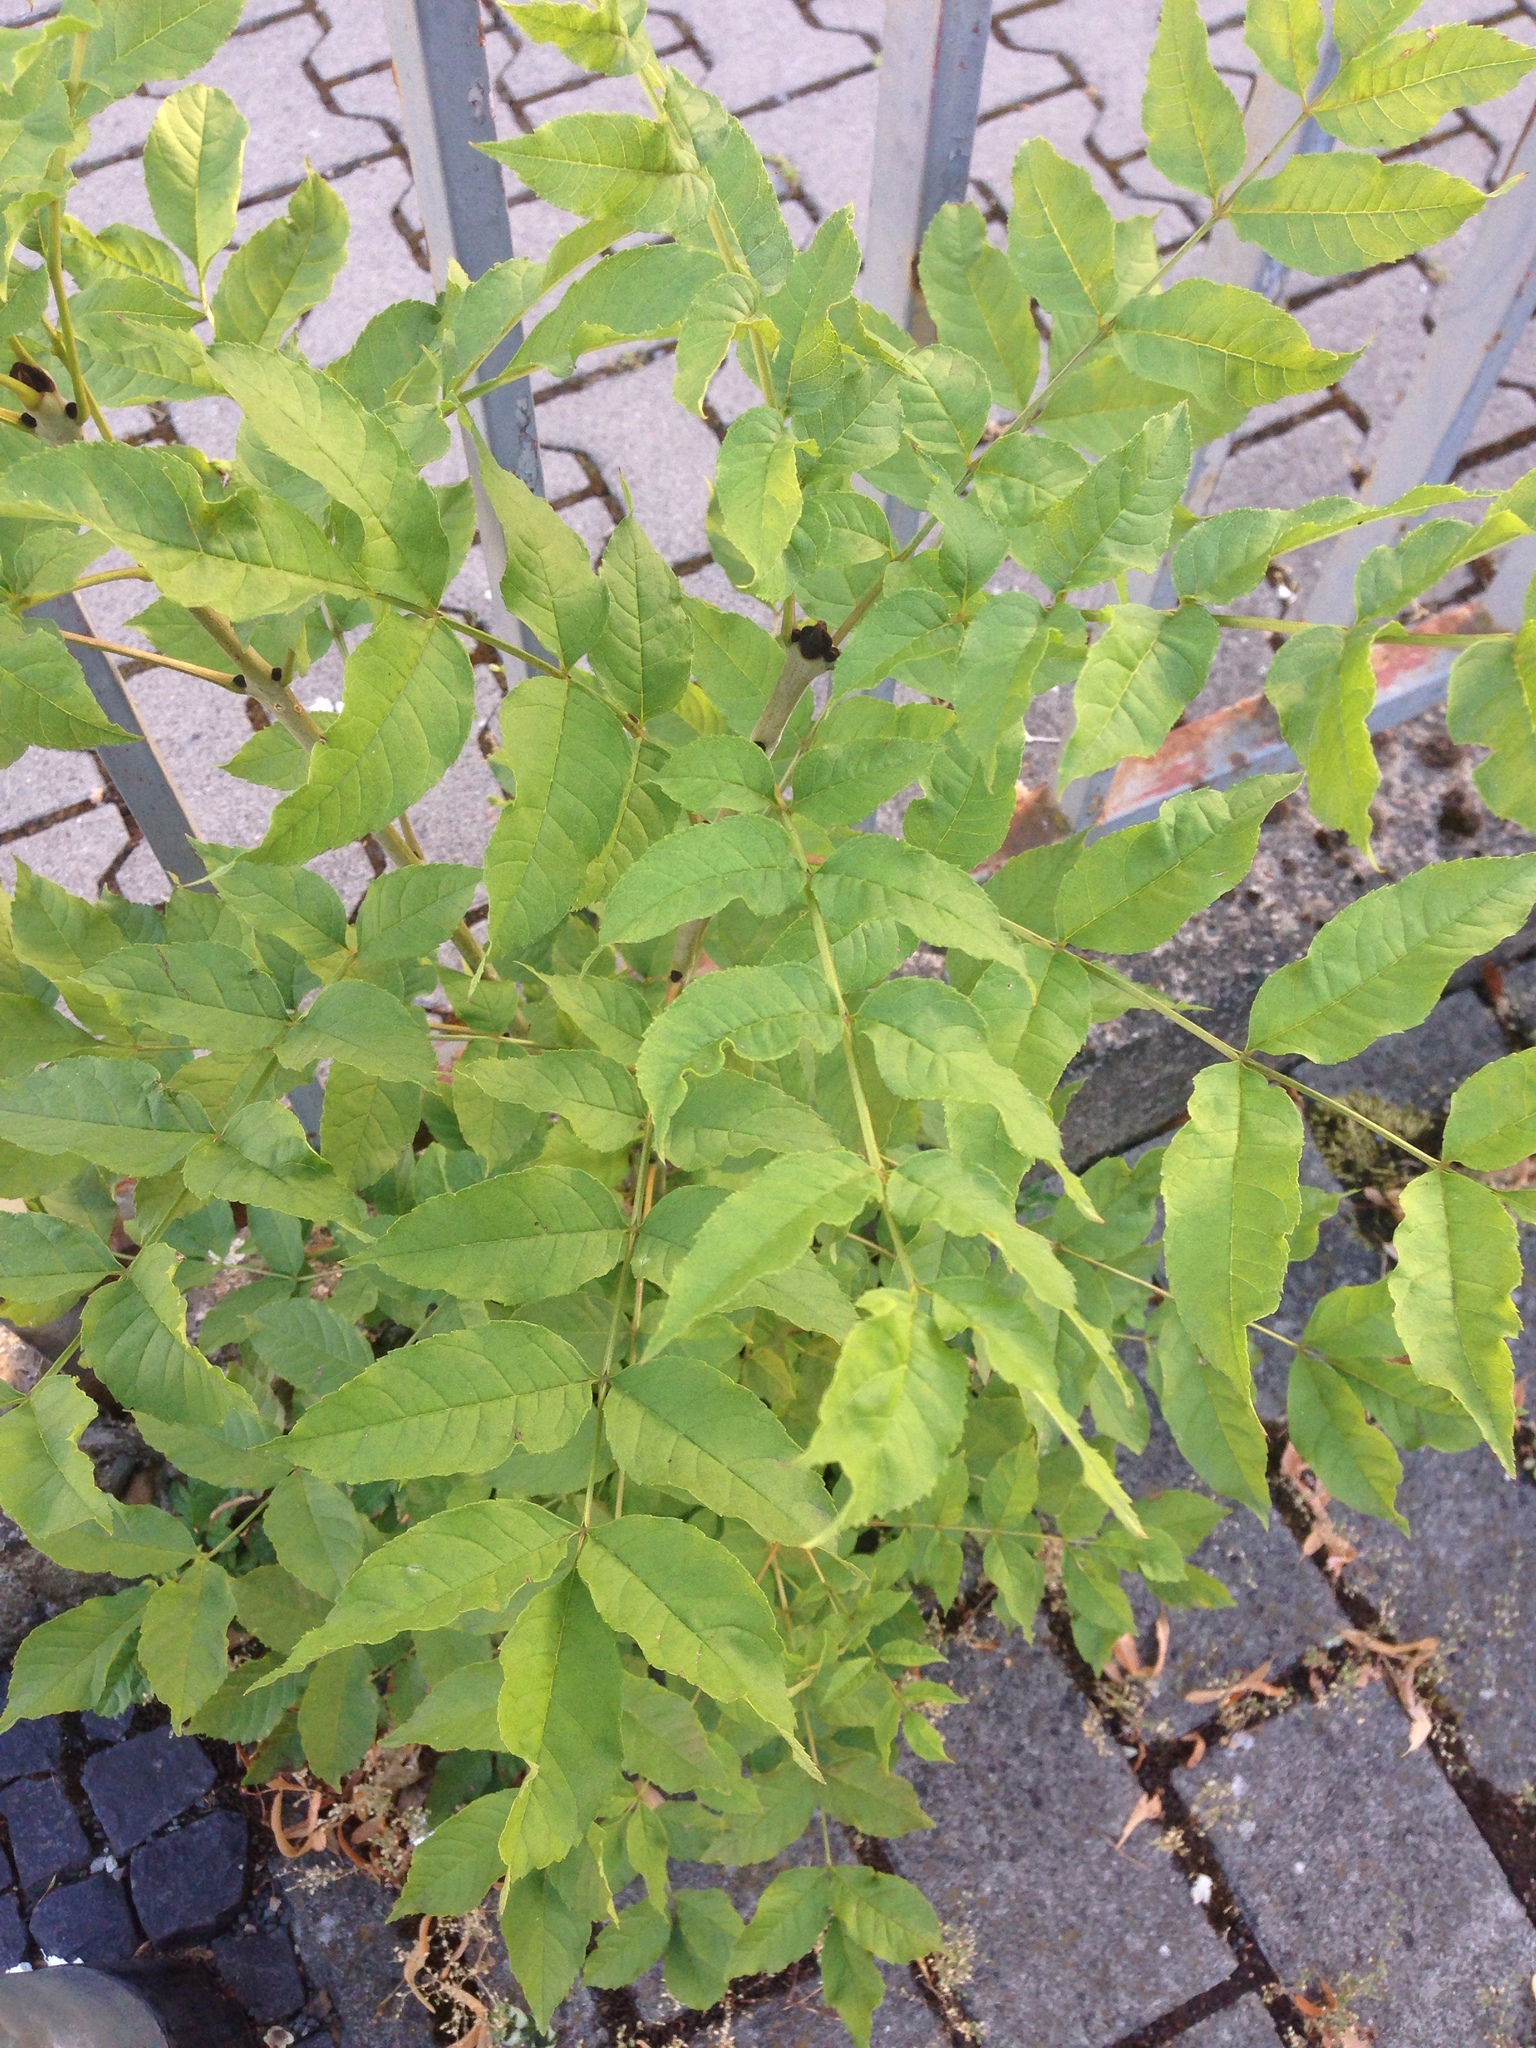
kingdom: Plantae
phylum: Tracheophyta
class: Magnoliopsida
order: Lamiales
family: Oleaceae
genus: Fraxinus
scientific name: Fraxinus excelsior
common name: European ash
